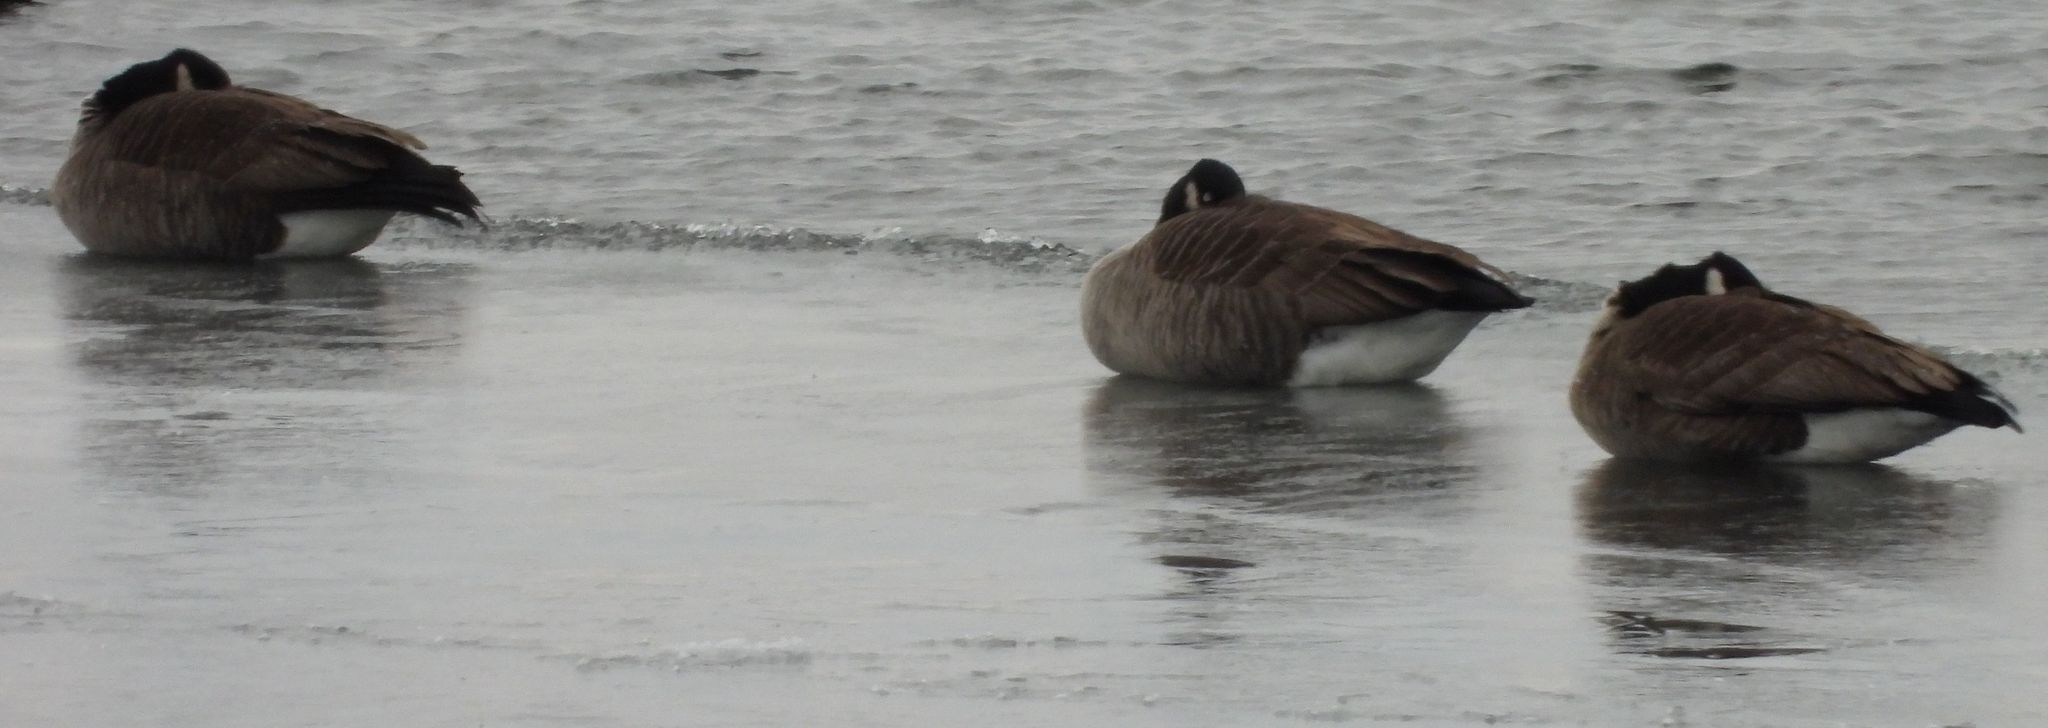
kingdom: Animalia
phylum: Chordata
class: Aves
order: Anseriformes
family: Anatidae
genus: Branta
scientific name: Branta canadensis
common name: Canada goose
